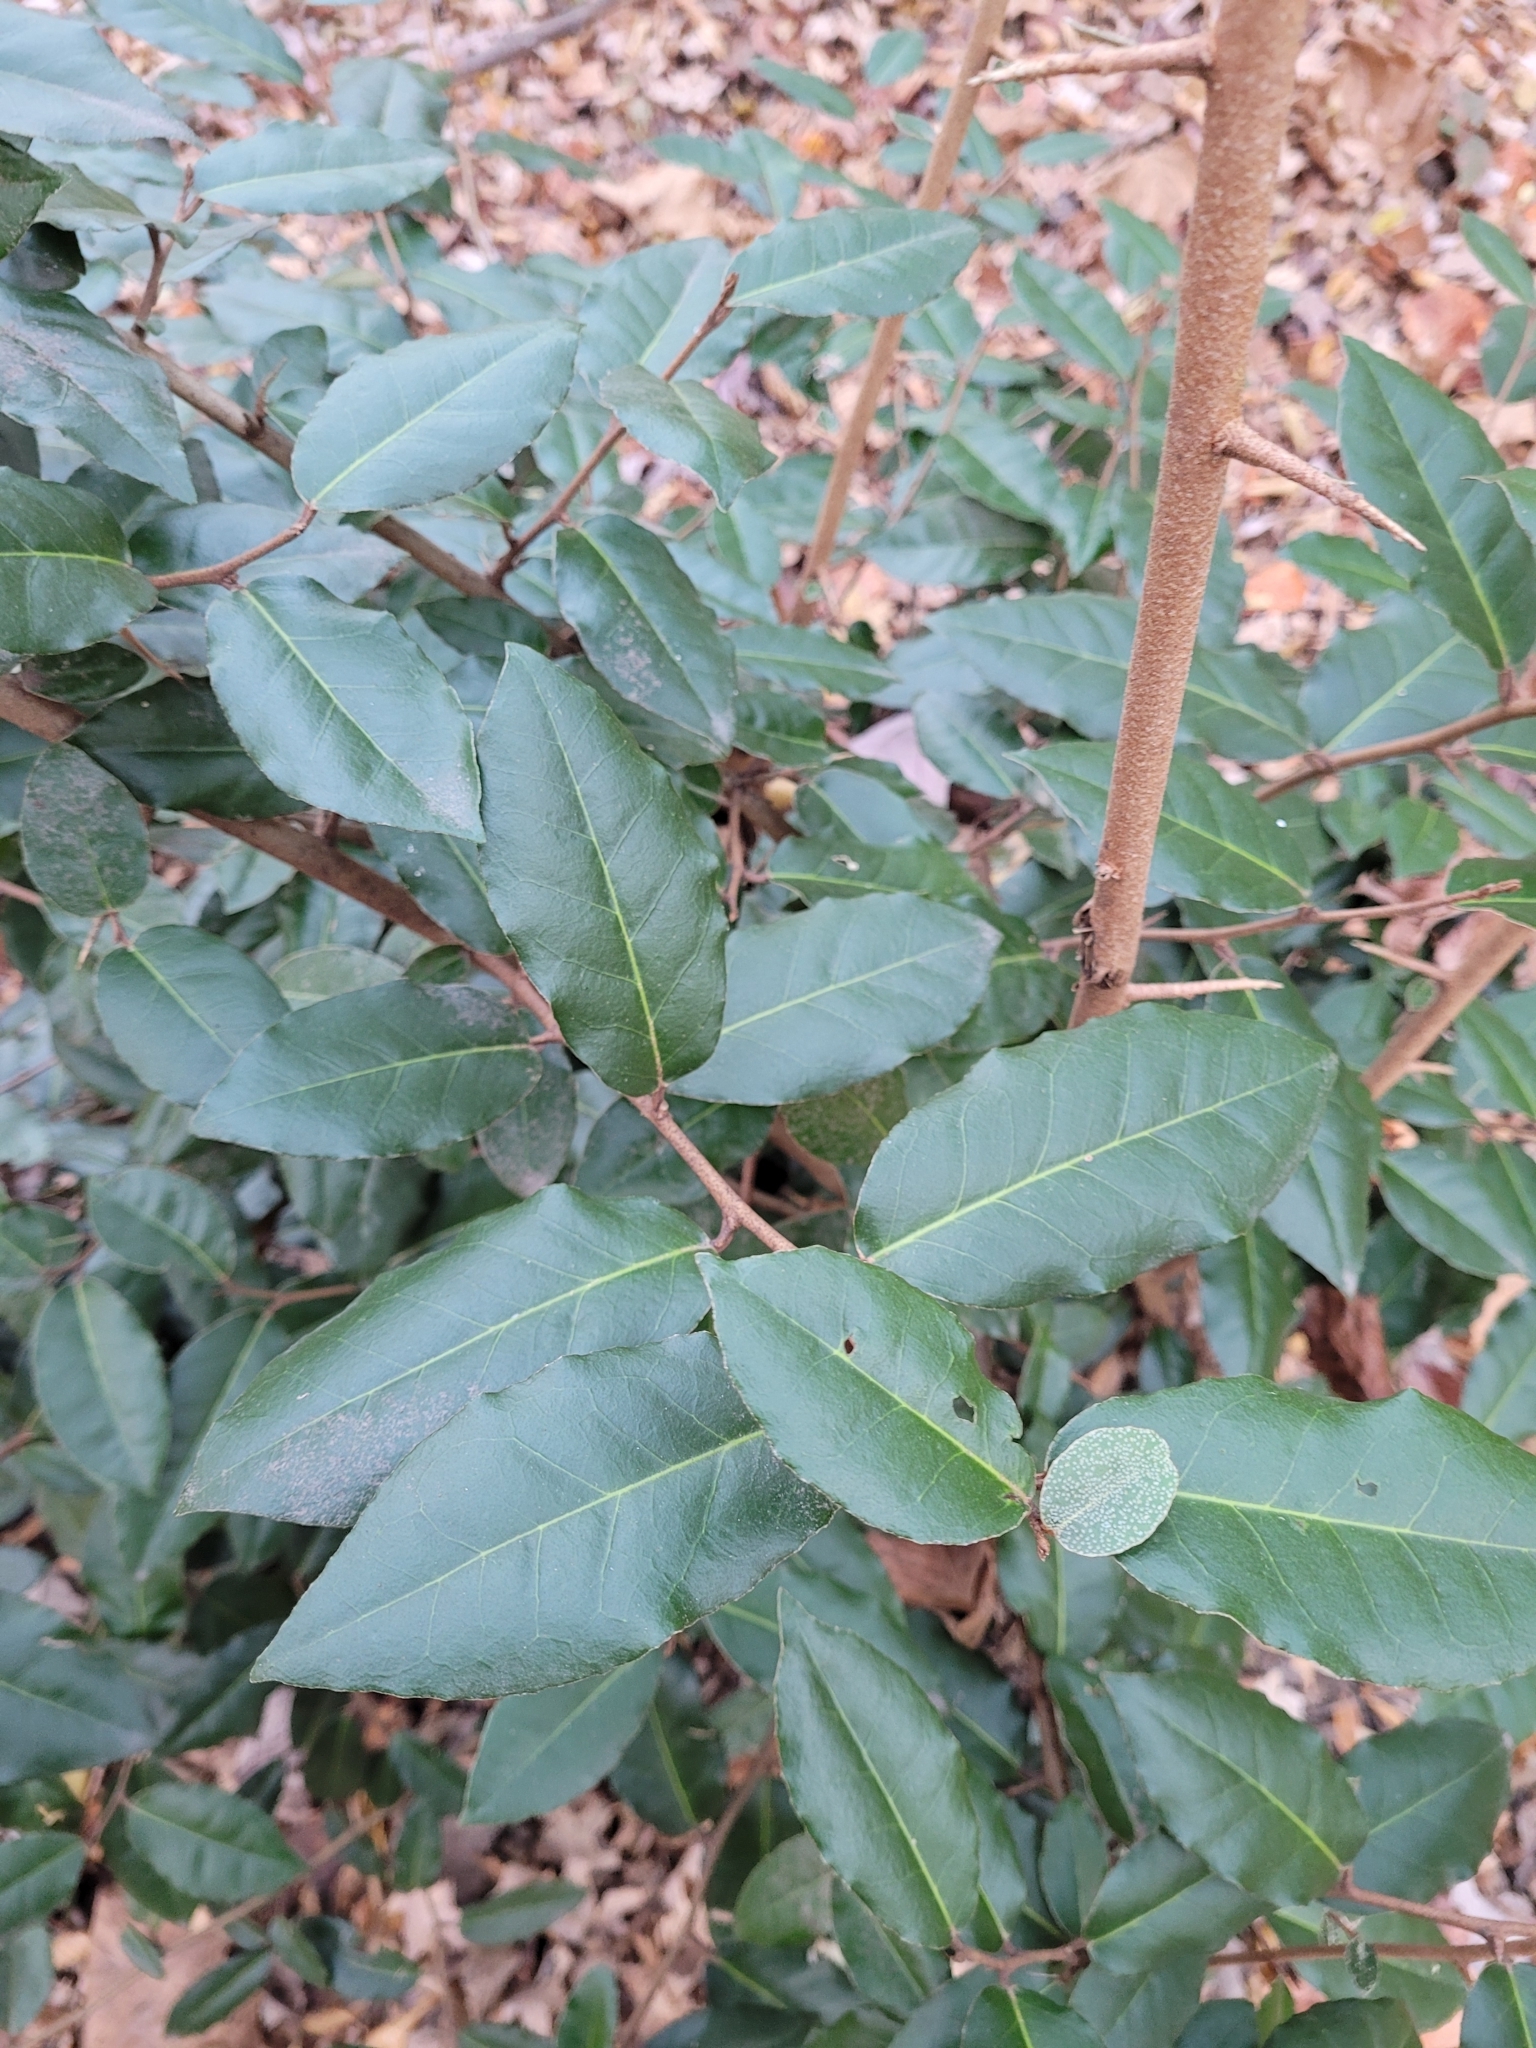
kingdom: Plantae
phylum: Tracheophyta
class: Magnoliopsida
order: Rosales
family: Elaeagnaceae
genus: Elaeagnus
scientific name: Elaeagnus pungens
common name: Spiny oleaster
